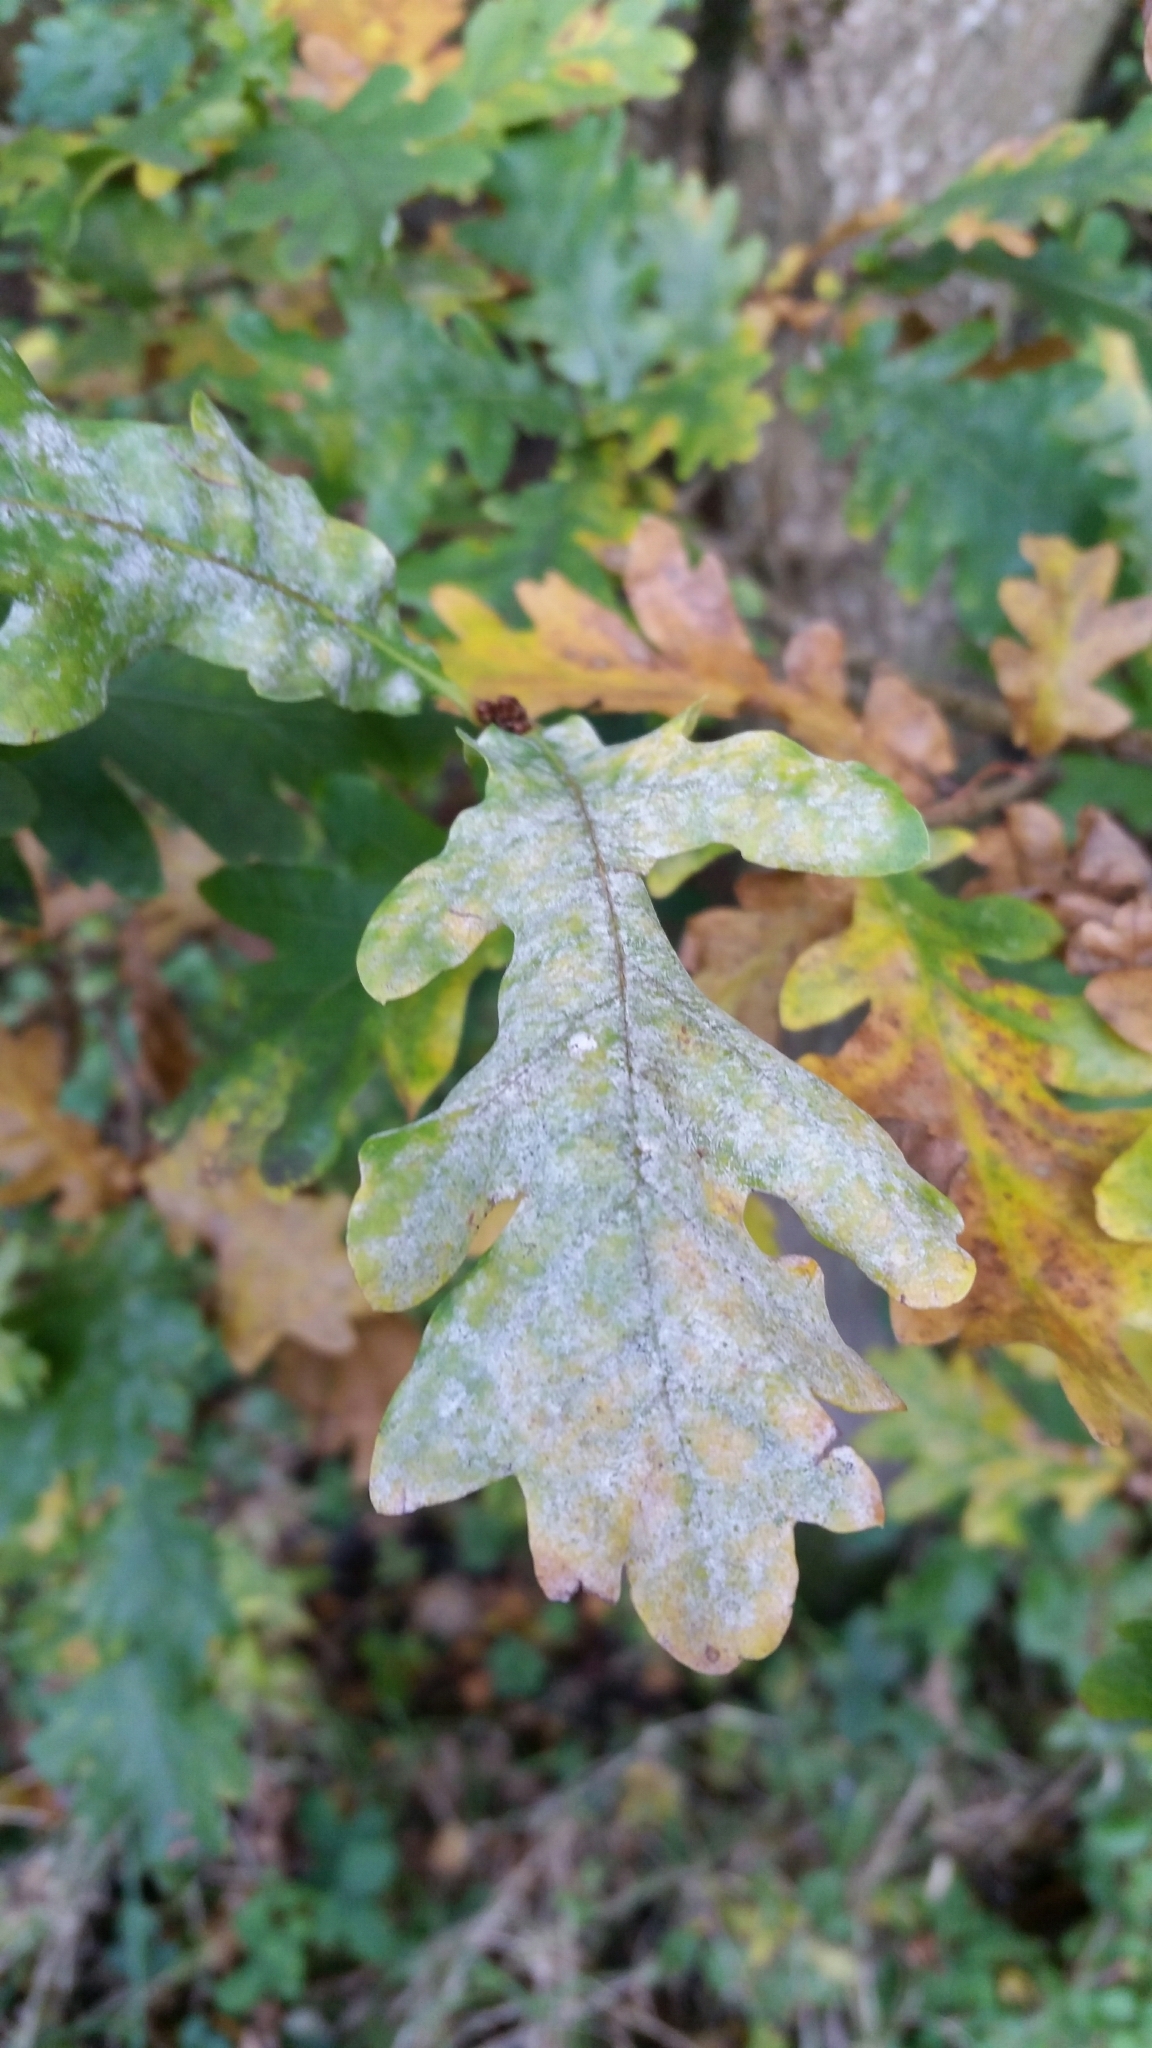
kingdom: Fungi
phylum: Ascomycota
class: Leotiomycetes
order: Helotiales
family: Erysiphaceae
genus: Erysiphe
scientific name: Erysiphe alphitoides
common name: Oak mildew
